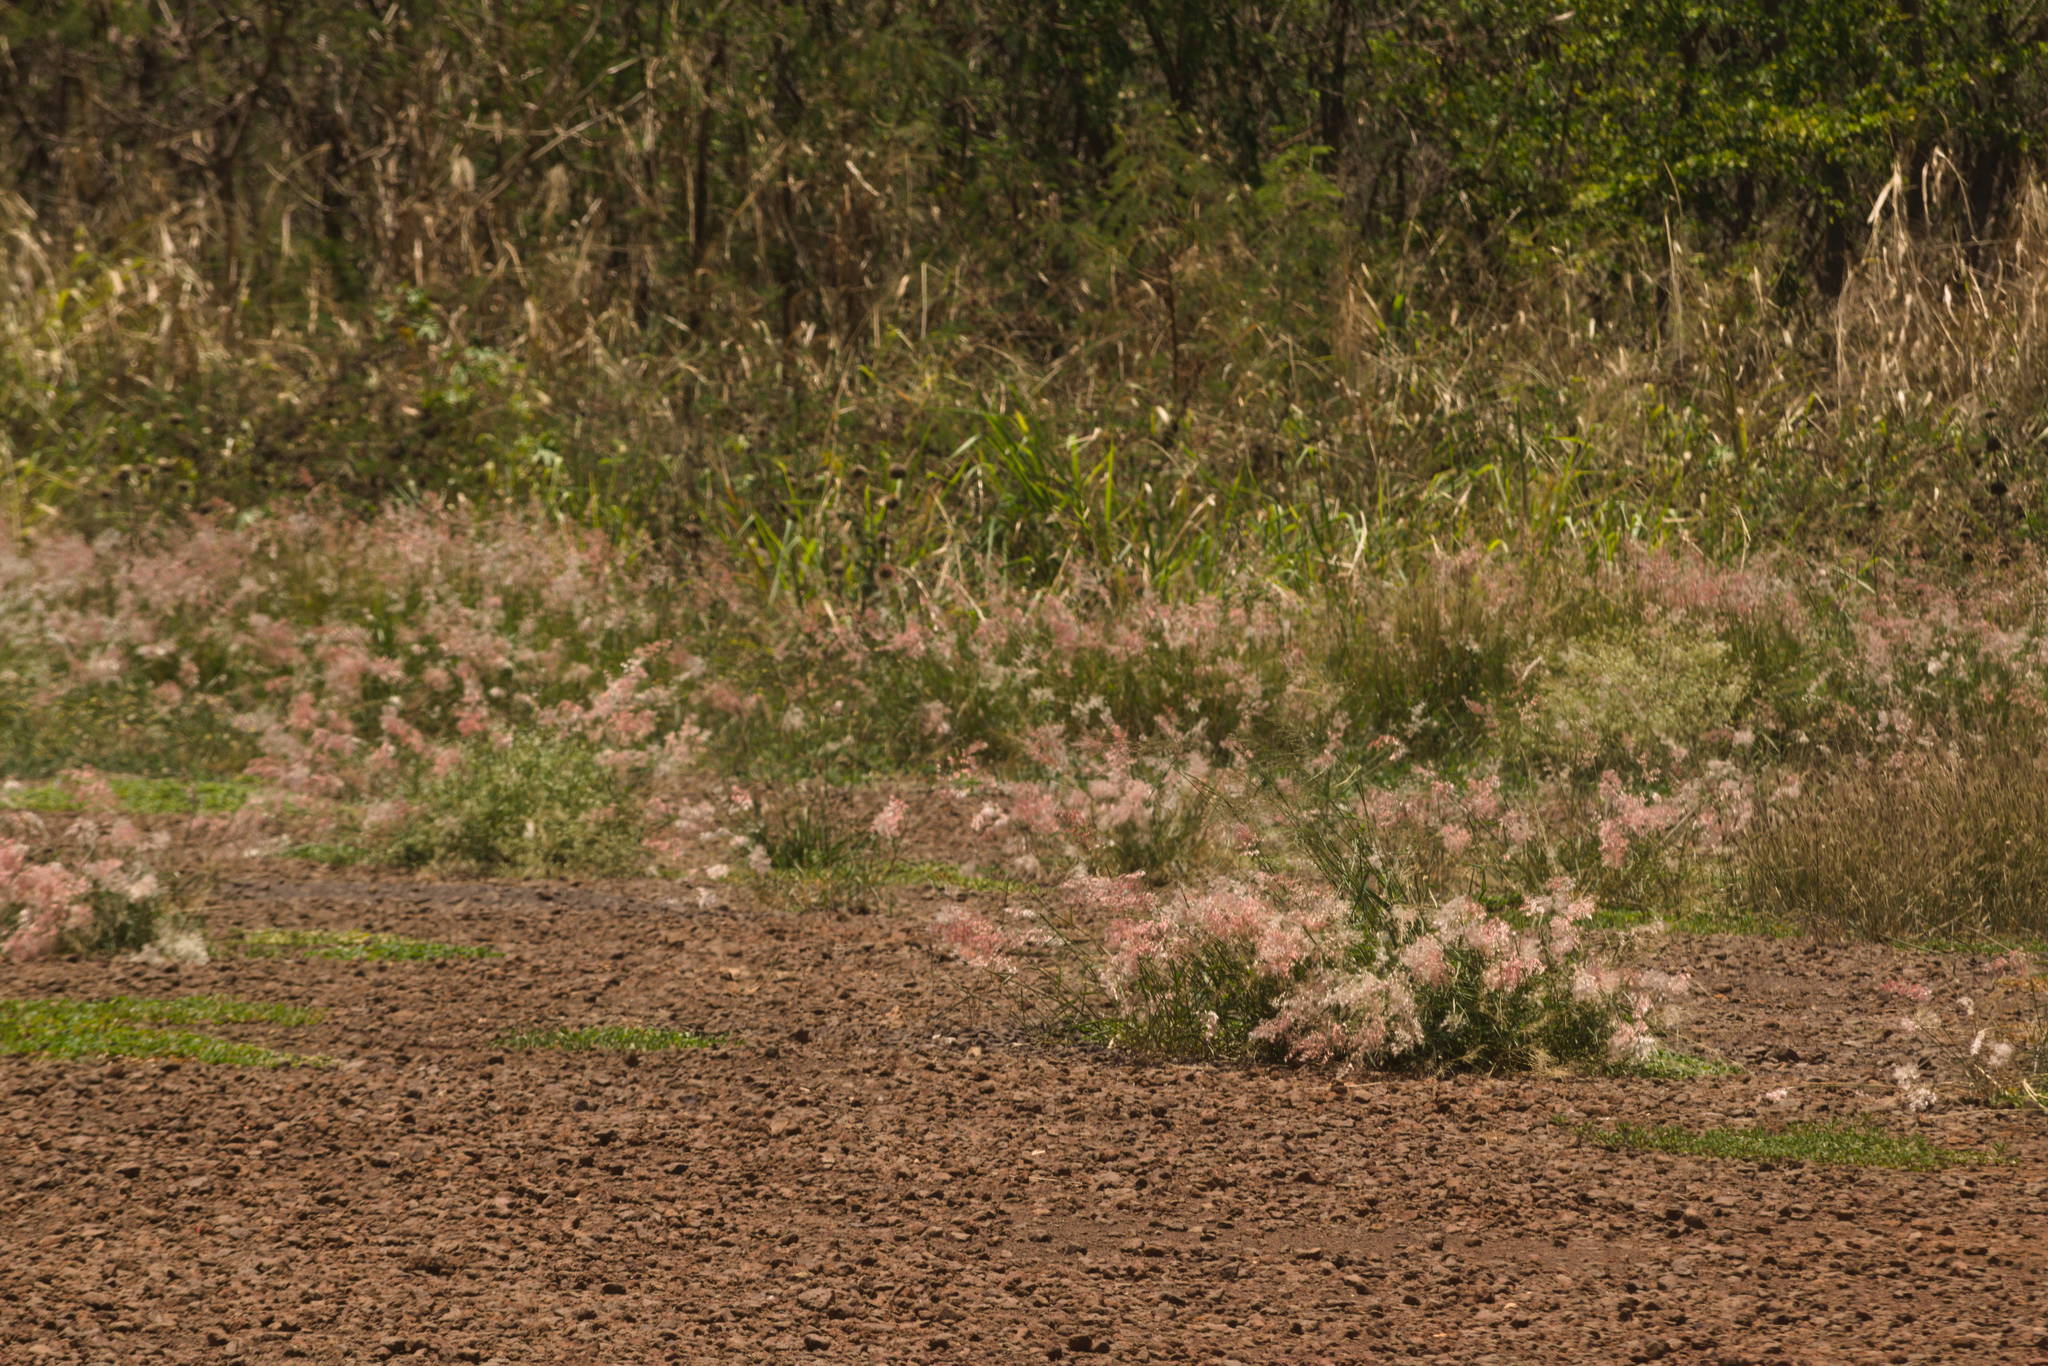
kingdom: Plantae
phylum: Tracheophyta
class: Liliopsida
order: Poales
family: Poaceae
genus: Melinis
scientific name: Melinis repens
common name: Rose natal grass
